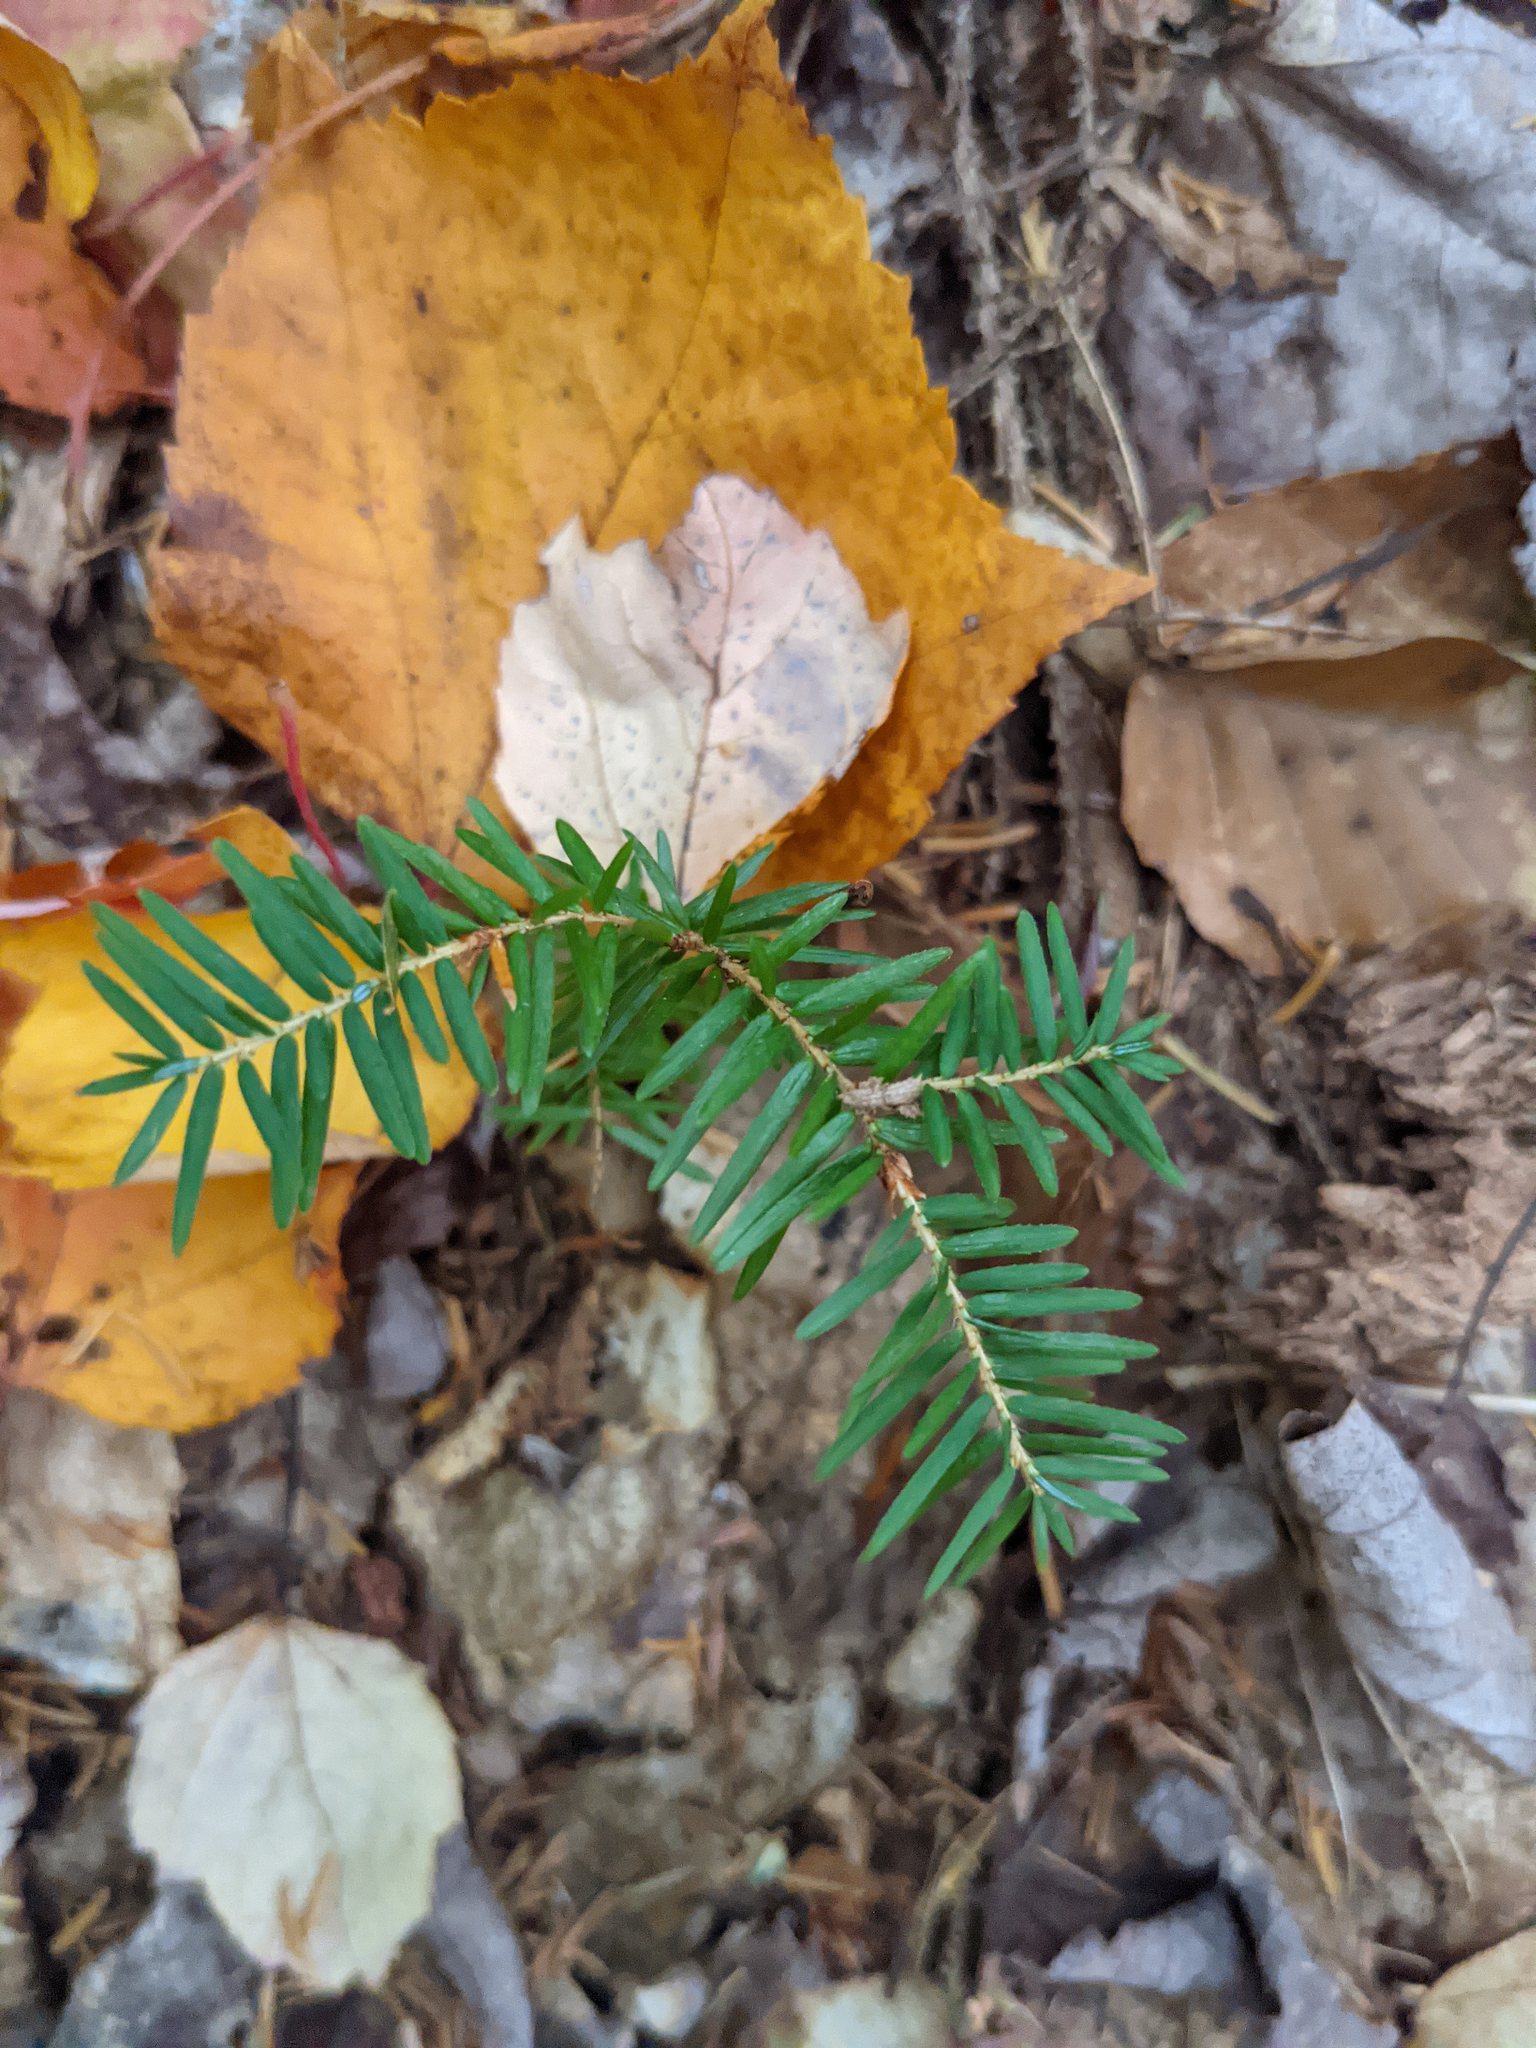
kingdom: Plantae
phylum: Tracheophyta
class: Pinopsida
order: Pinales
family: Pinaceae
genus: Tsuga
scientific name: Tsuga canadensis
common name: Eastern hemlock
